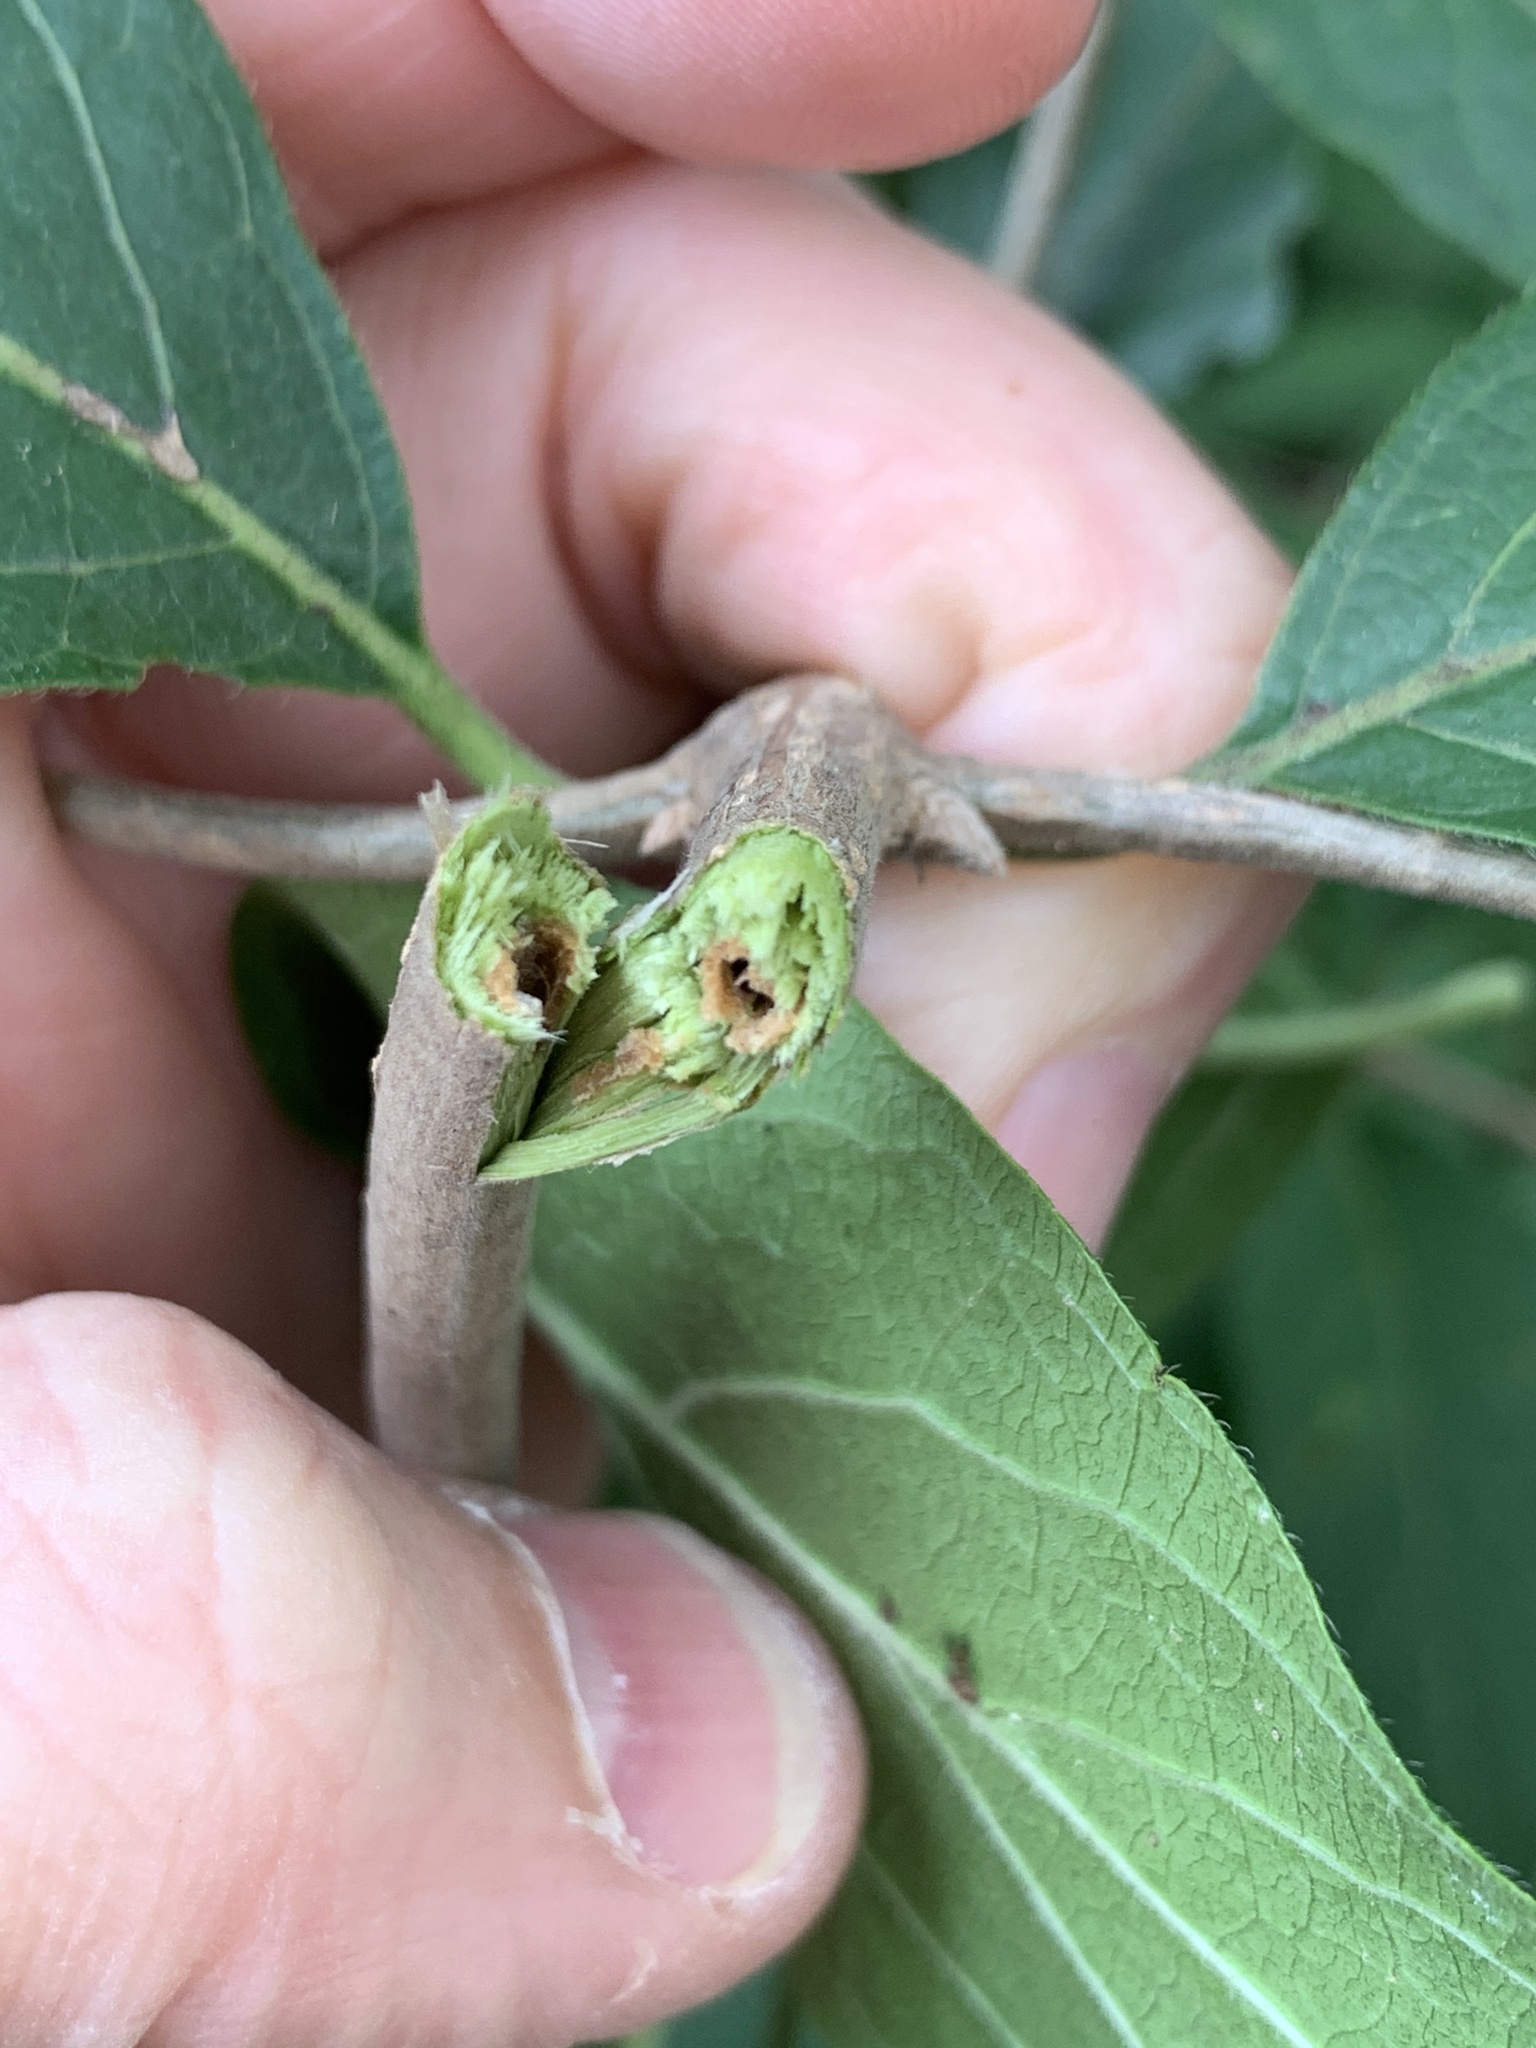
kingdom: Plantae
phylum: Tracheophyta
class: Magnoliopsida
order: Dipsacales
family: Caprifoliaceae
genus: Lonicera
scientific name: Lonicera maackii
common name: Amur honeysuckle
